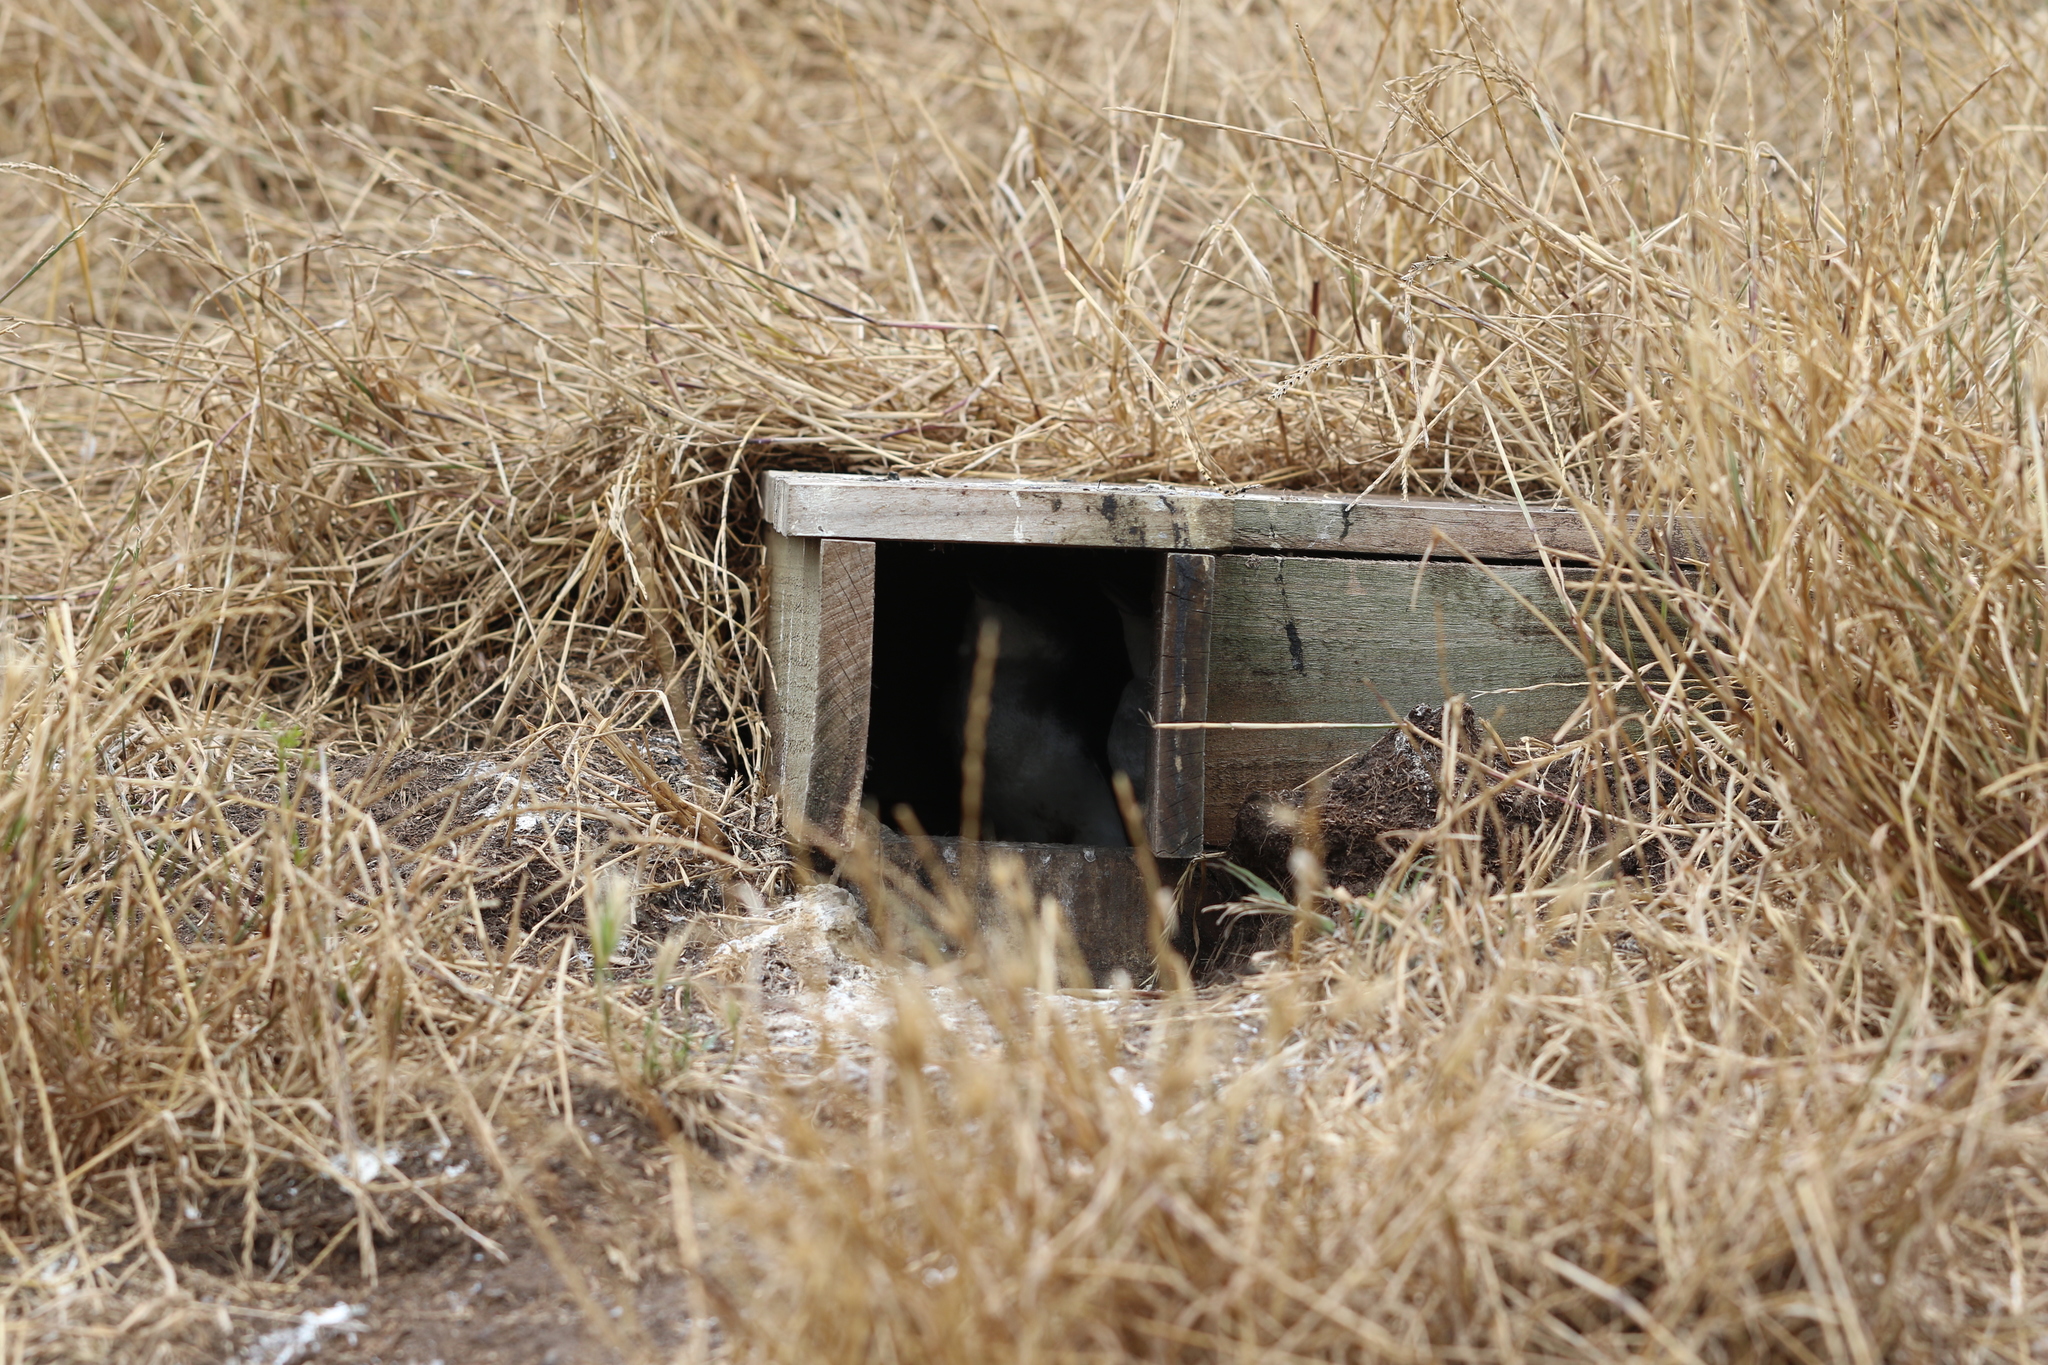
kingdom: Animalia
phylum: Chordata
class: Aves
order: Sphenisciformes
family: Spheniscidae
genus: Eudyptula
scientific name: Eudyptula minor
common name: Little penguin
